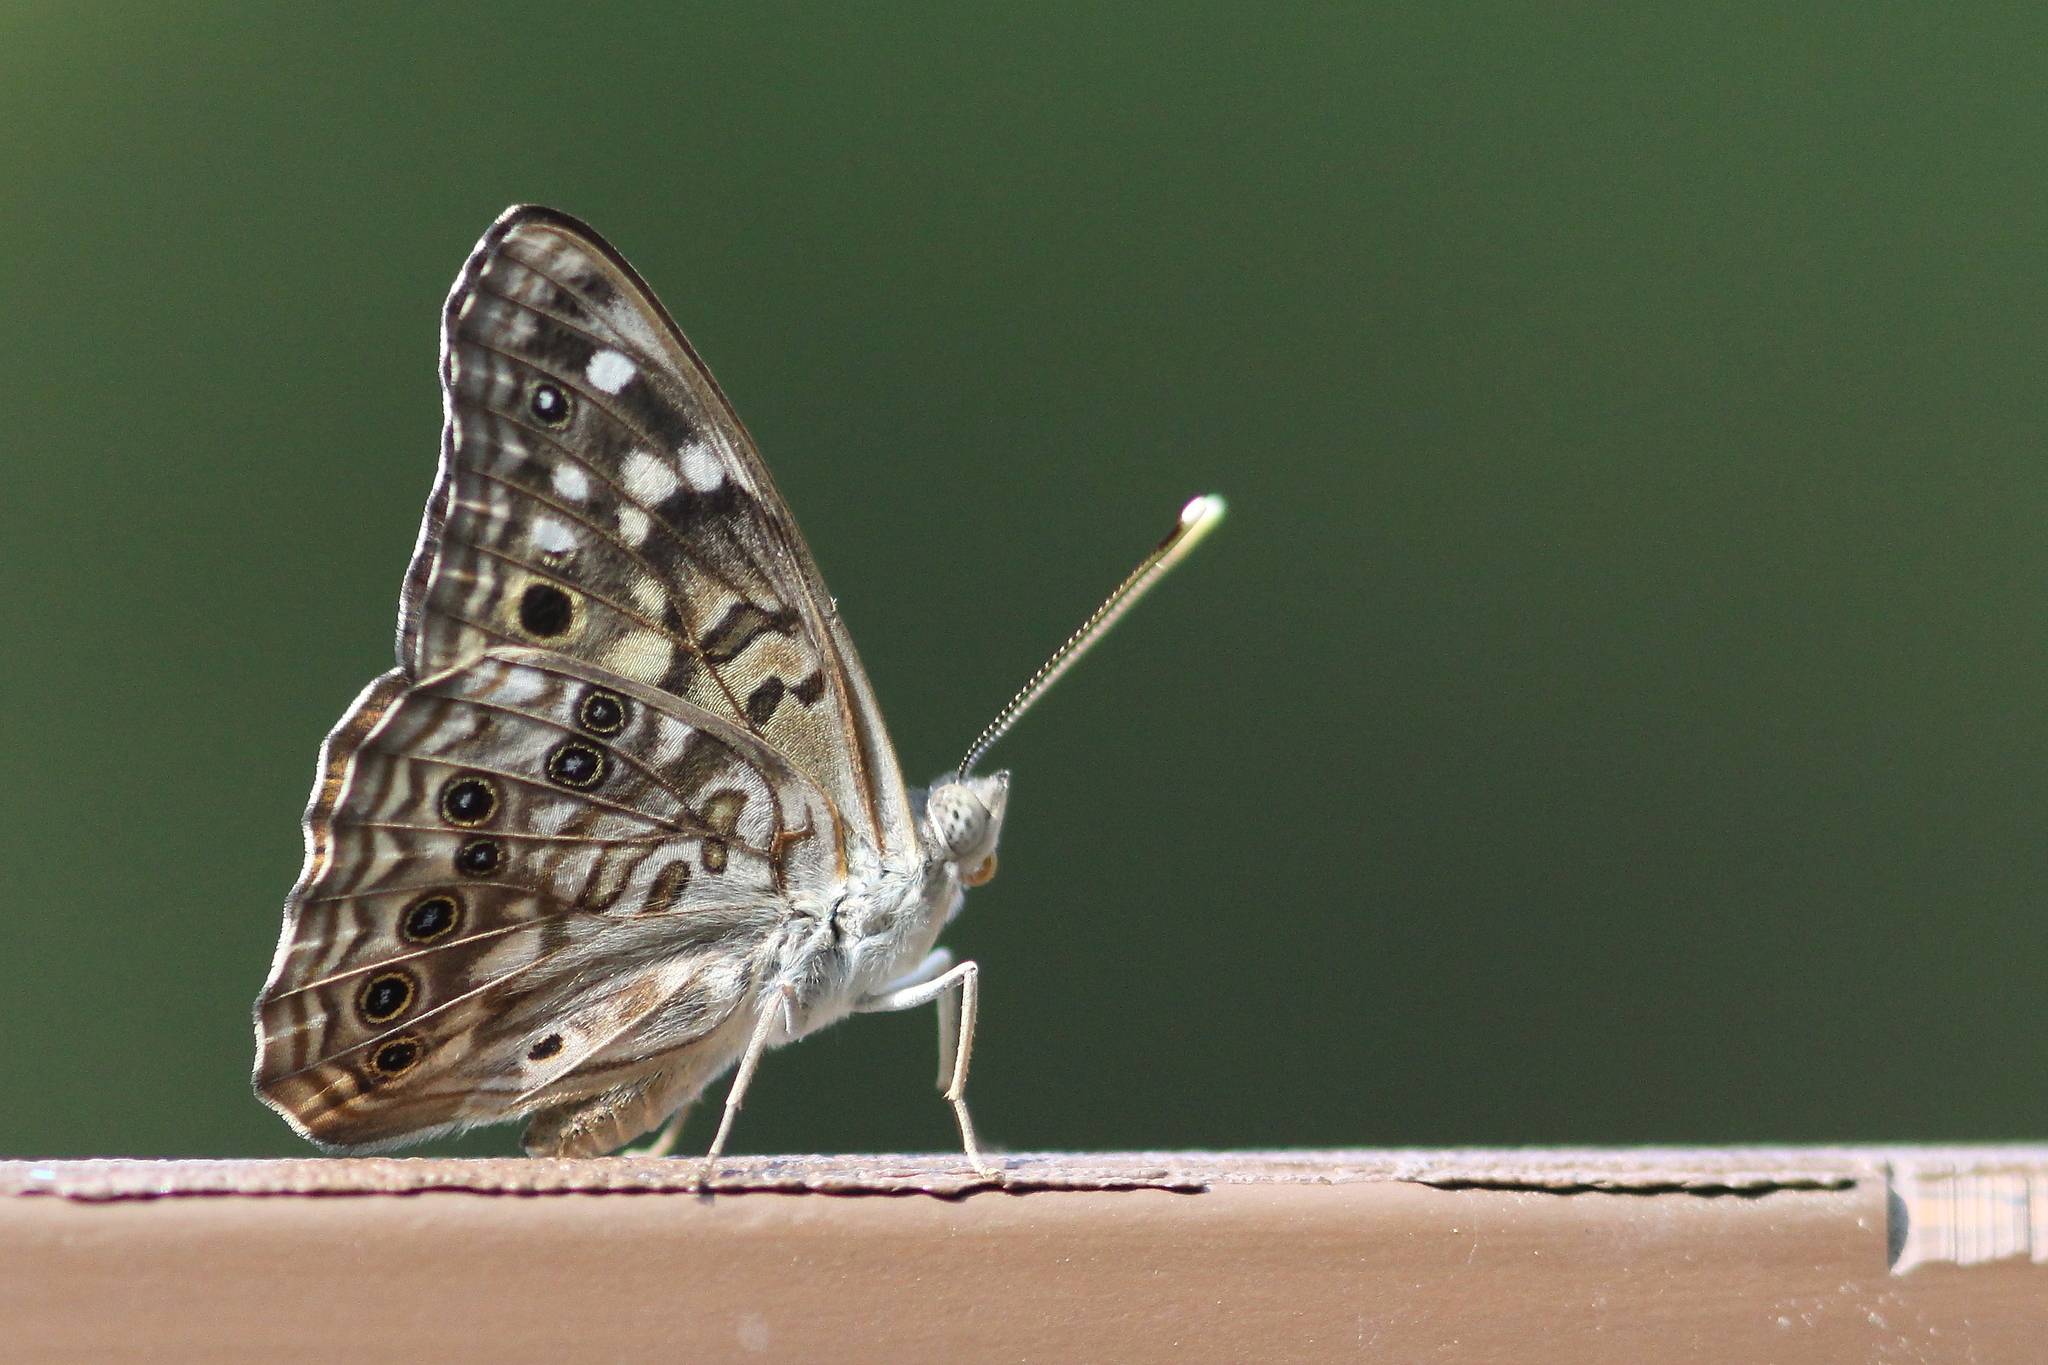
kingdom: Animalia
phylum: Arthropoda
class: Insecta
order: Lepidoptera
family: Nymphalidae
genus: Asterocampa
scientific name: Asterocampa celtis
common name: Hackberry emperor
